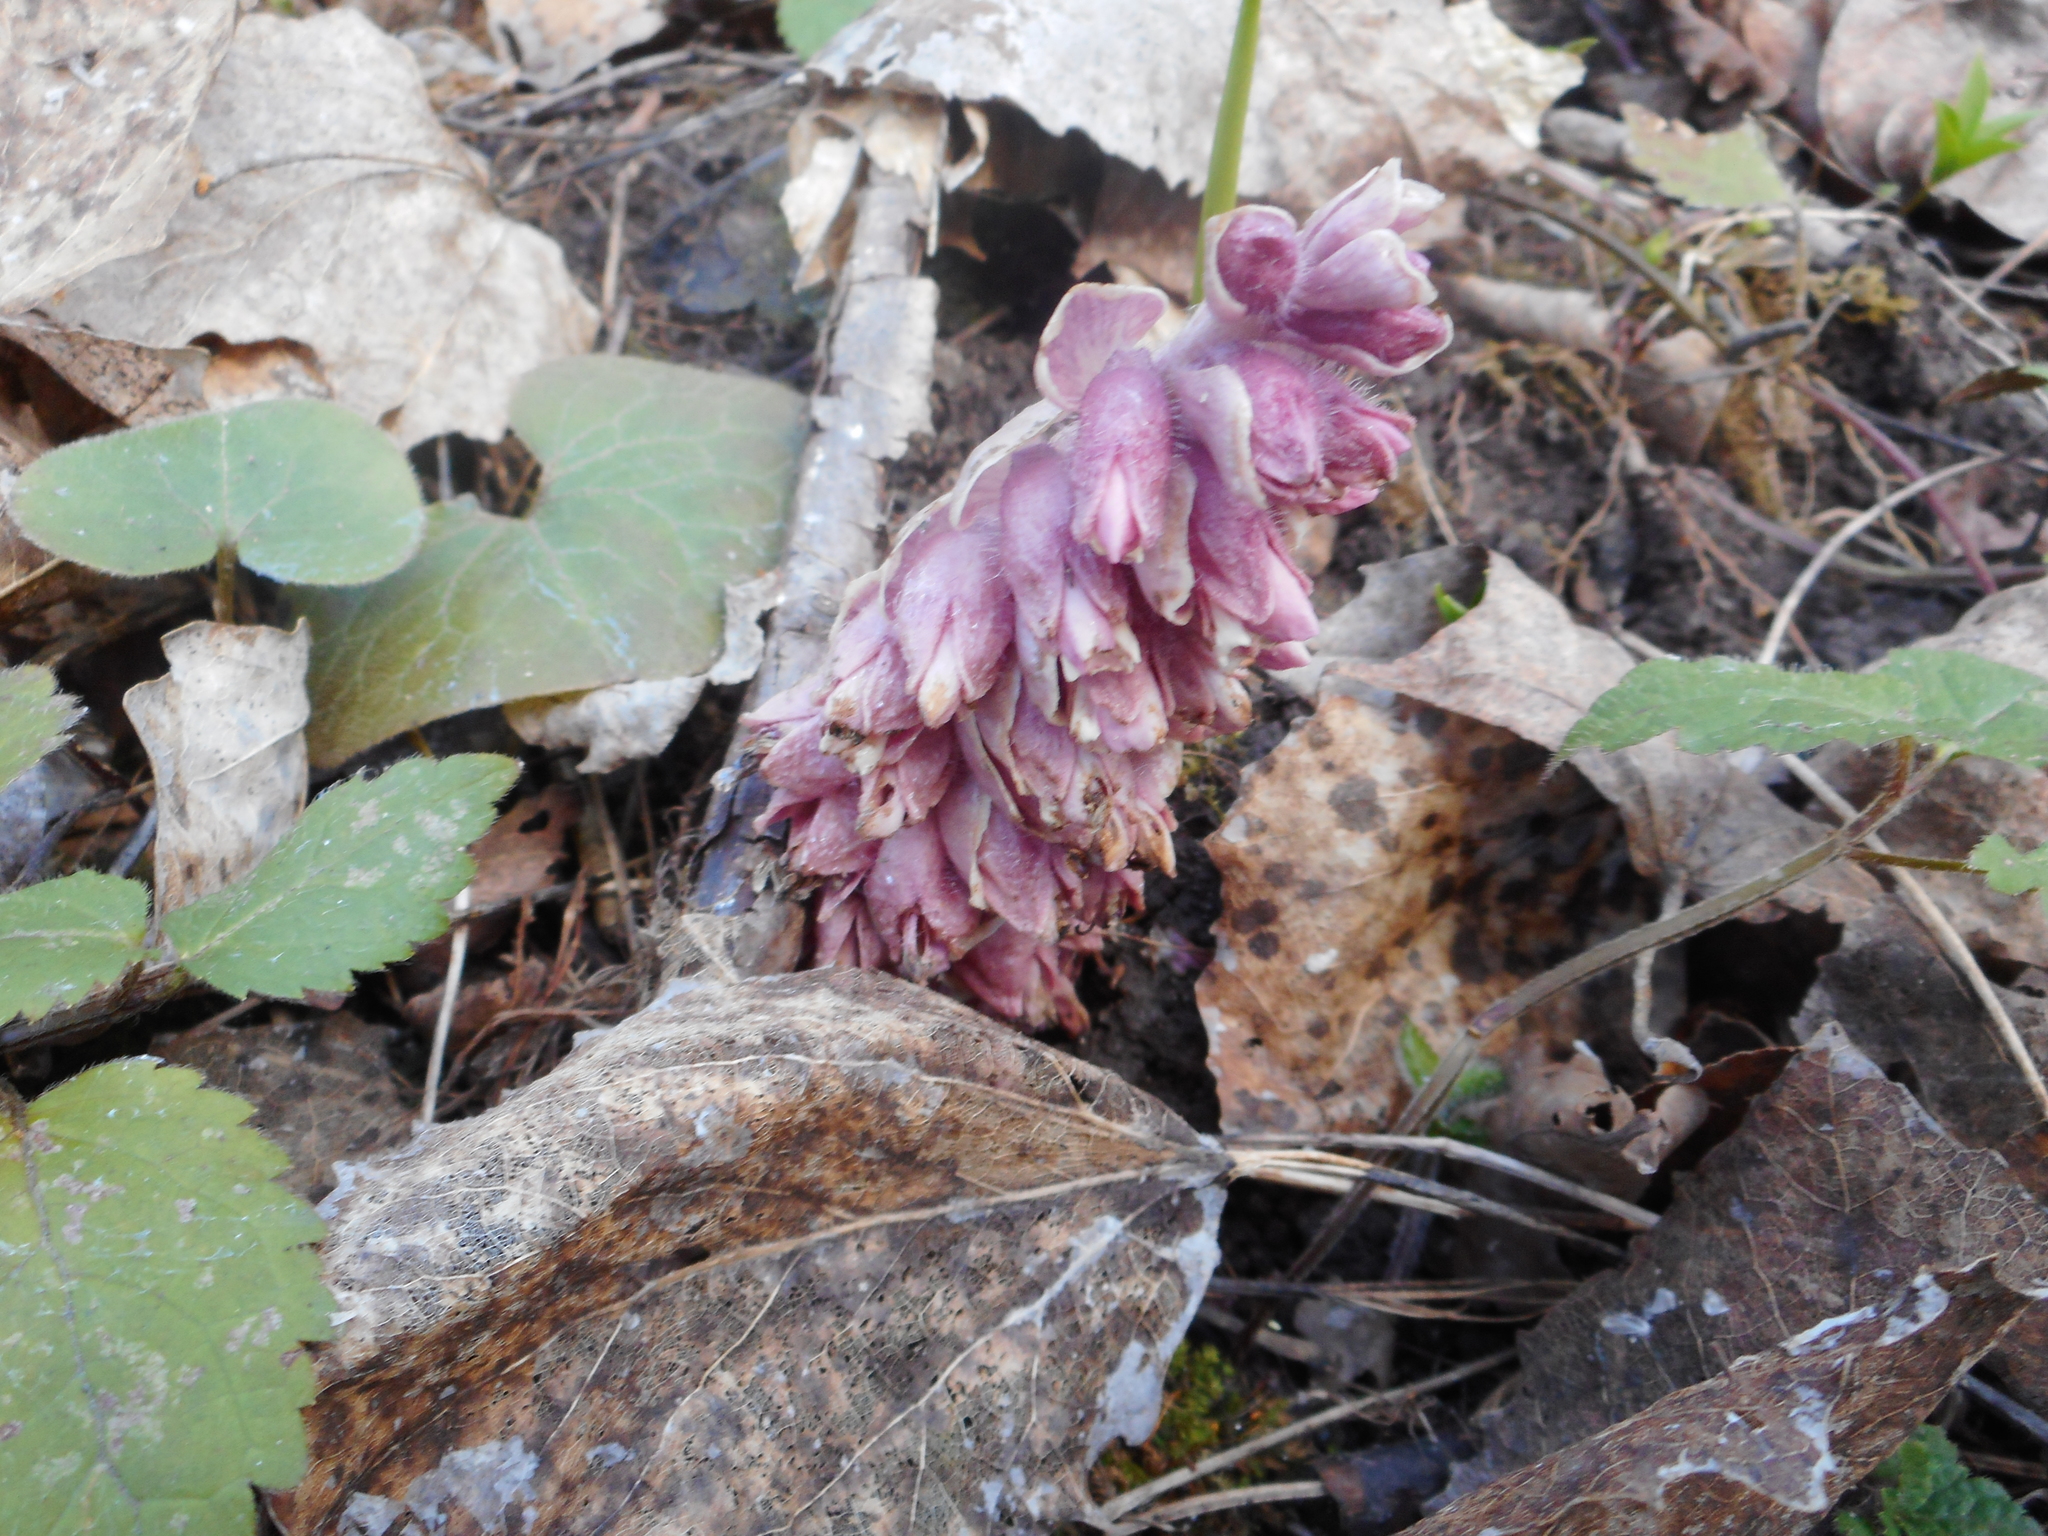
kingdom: Plantae
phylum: Tracheophyta
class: Magnoliopsida
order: Lamiales
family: Orobanchaceae
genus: Lathraea
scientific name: Lathraea squamaria
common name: Toothwort
